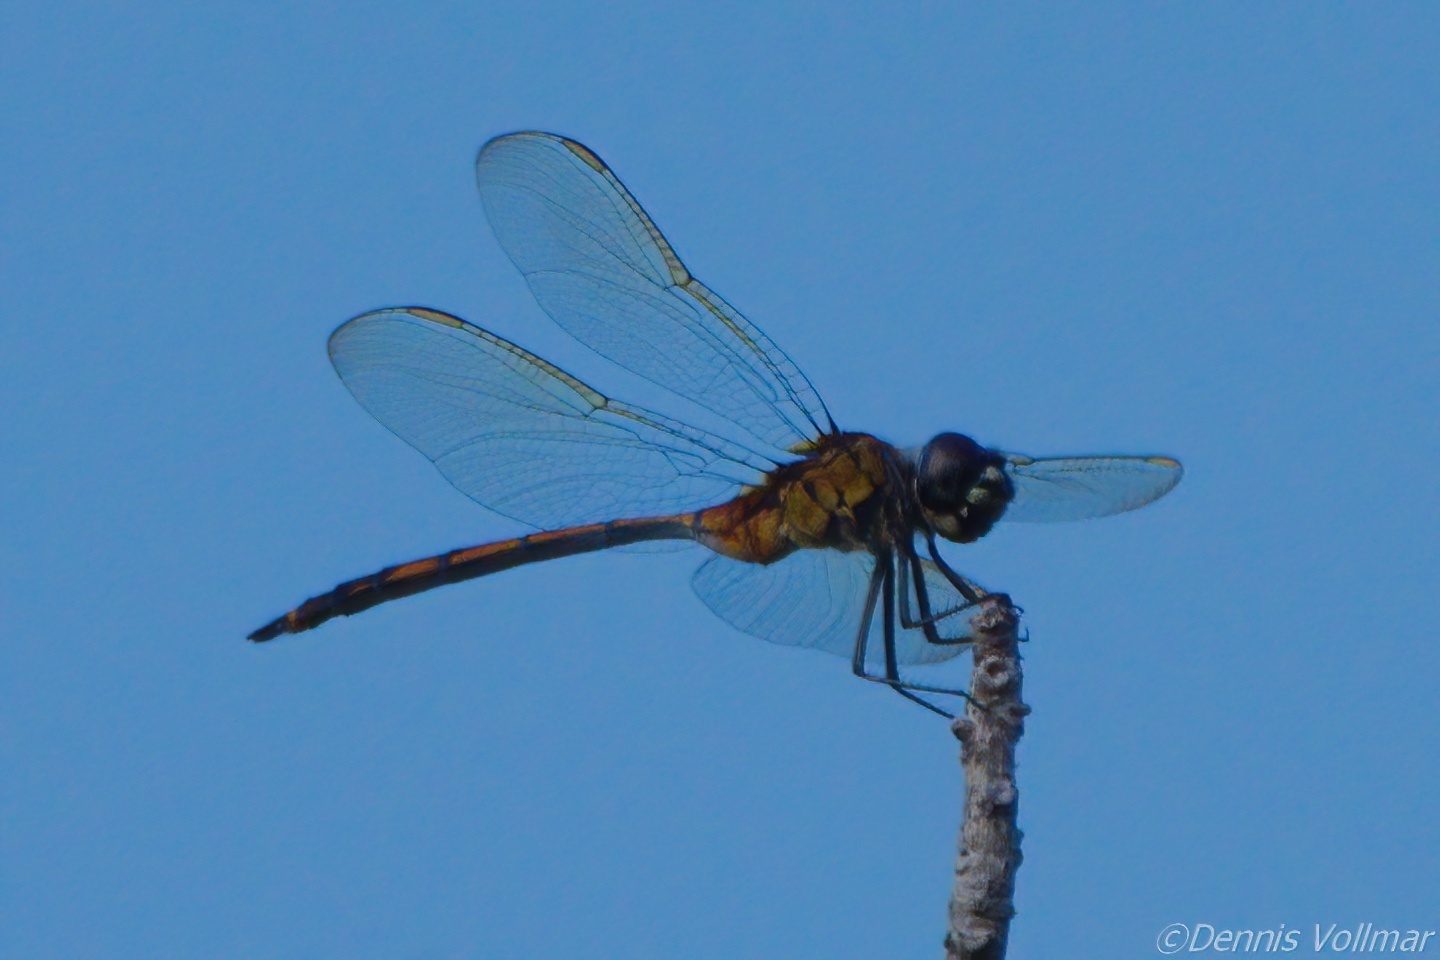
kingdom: Animalia
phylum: Arthropoda
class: Insecta
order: Odonata
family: Libellulidae
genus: Brachymesia
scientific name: Brachymesia gravida
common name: Four-spotted pennant
